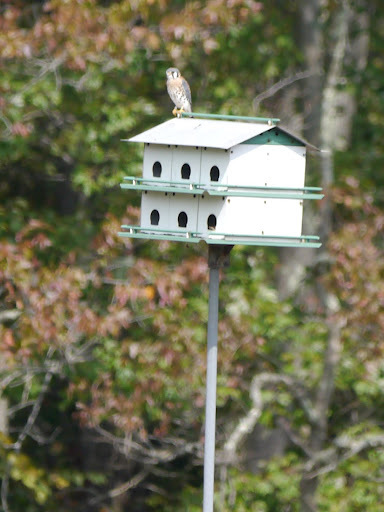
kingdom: Animalia
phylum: Chordata
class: Aves
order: Falconiformes
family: Falconidae
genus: Falco
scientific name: Falco sparverius
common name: American kestrel
